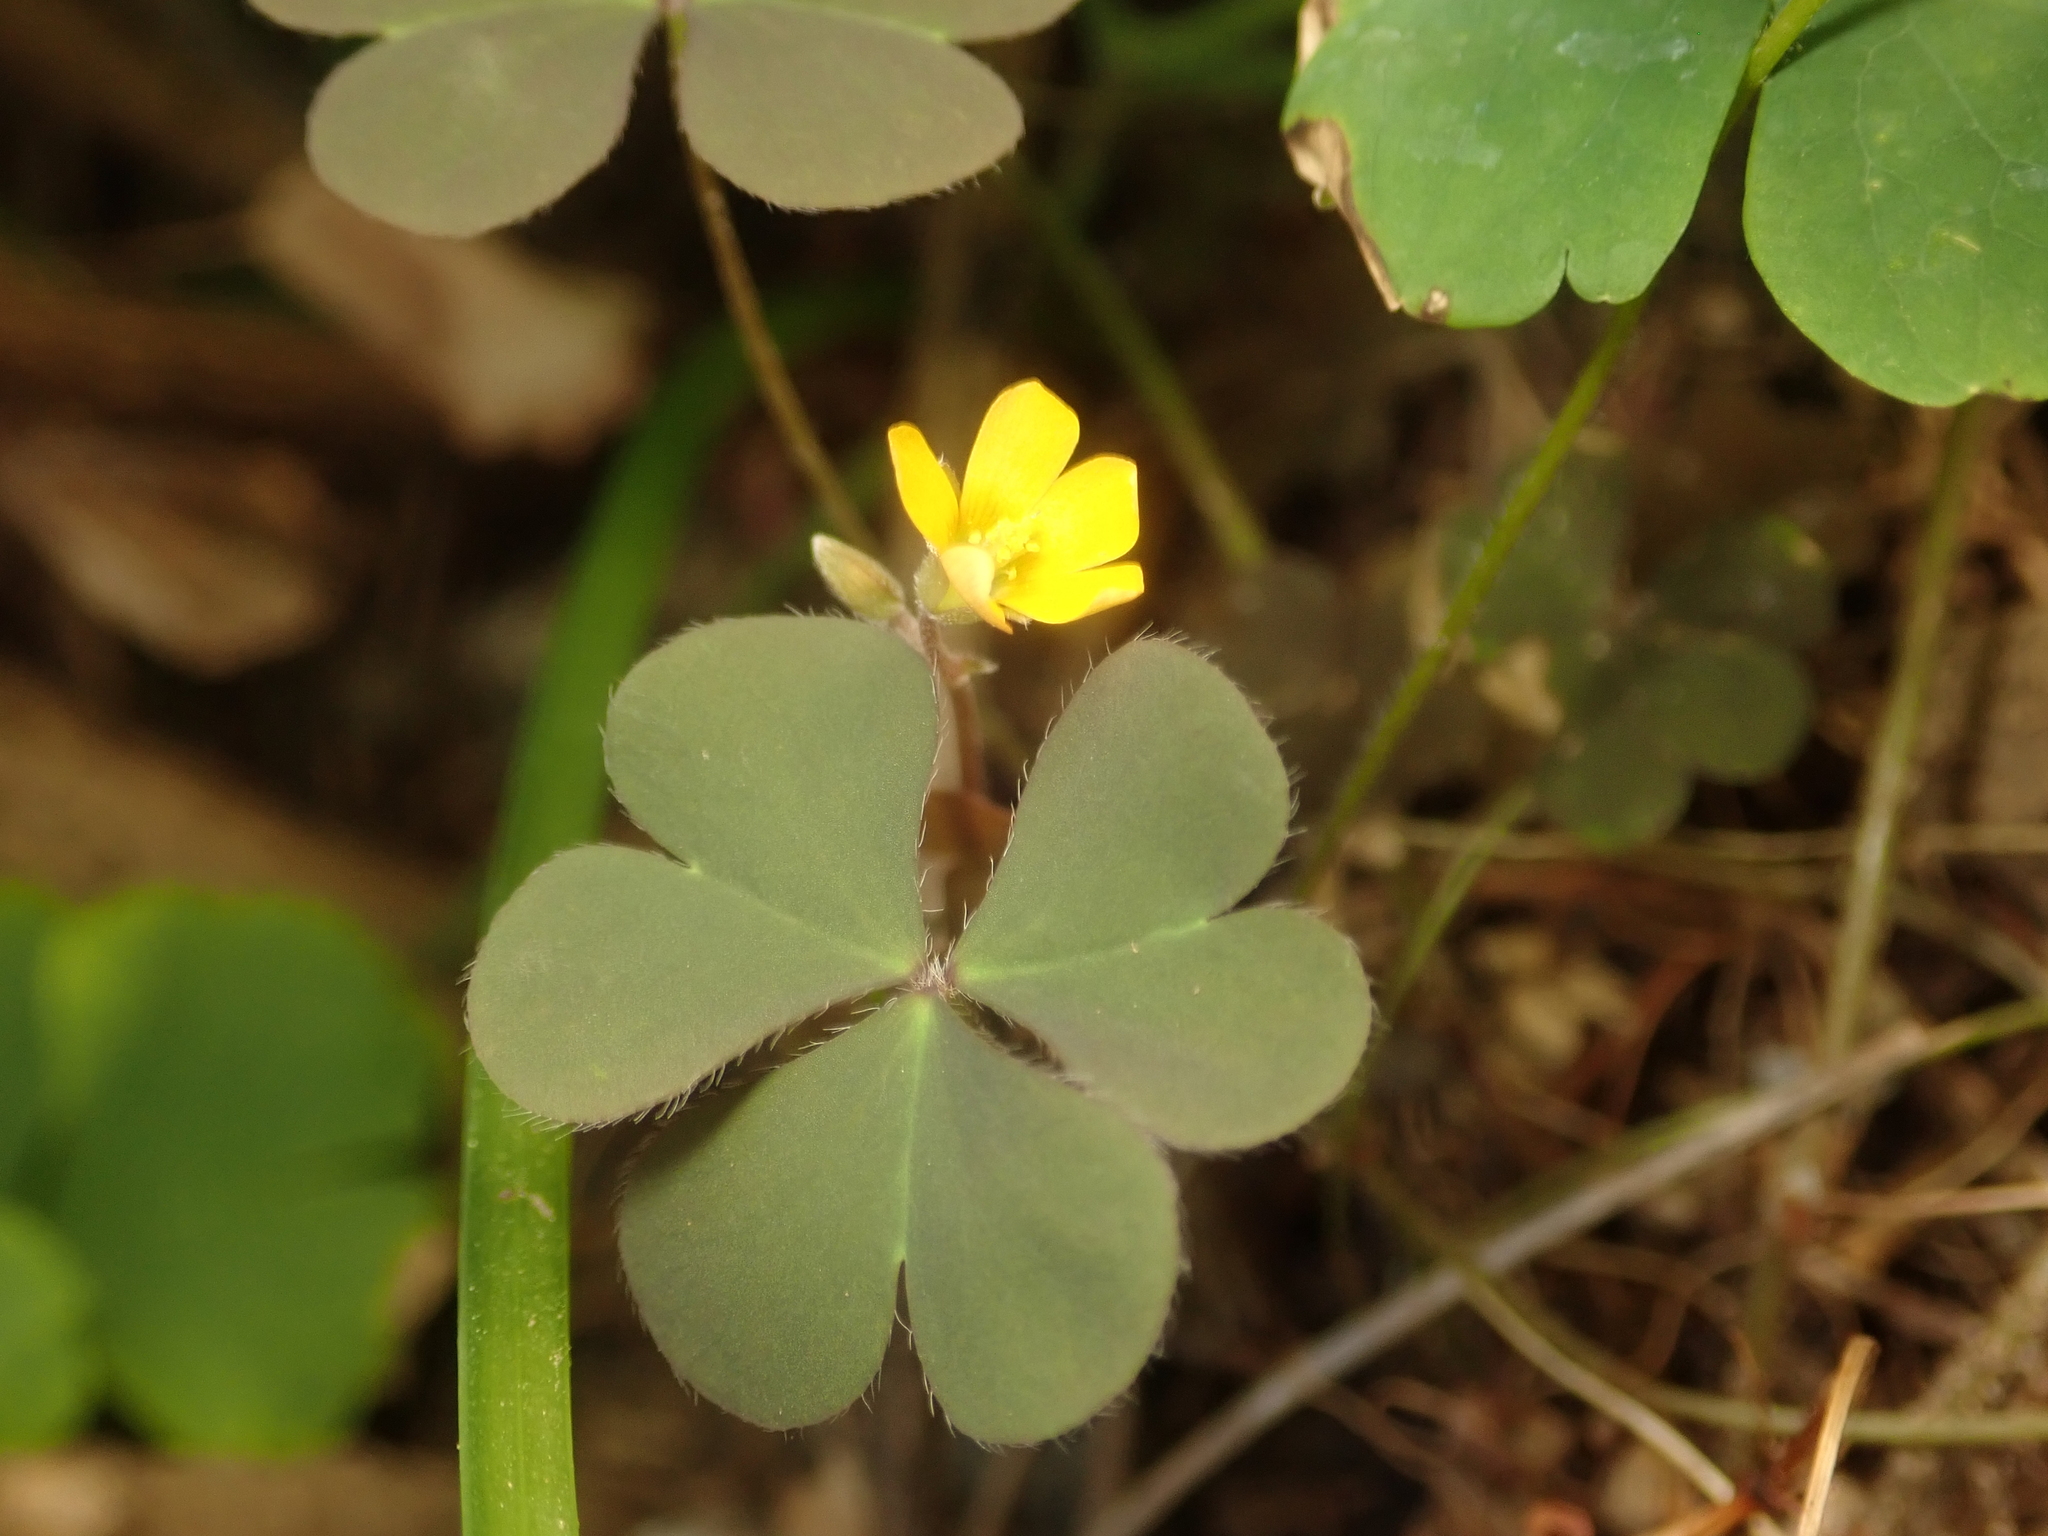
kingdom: Plantae
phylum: Tracheophyta
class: Magnoliopsida
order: Oxalidales
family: Oxalidaceae
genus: Oxalis
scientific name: Oxalis corniculata
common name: Procumbent yellow-sorrel
